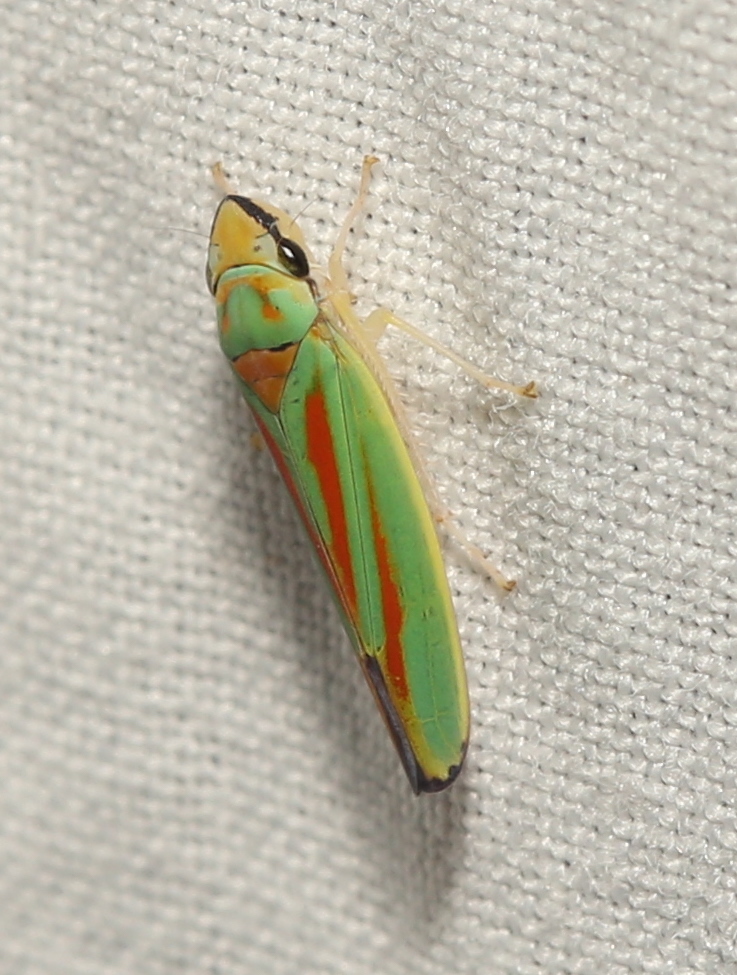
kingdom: Animalia
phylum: Arthropoda
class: Insecta
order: Hemiptera
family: Cicadellidae
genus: Graphocephala
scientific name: Graphocephala fennahi
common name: Rhododendron leafhopper
